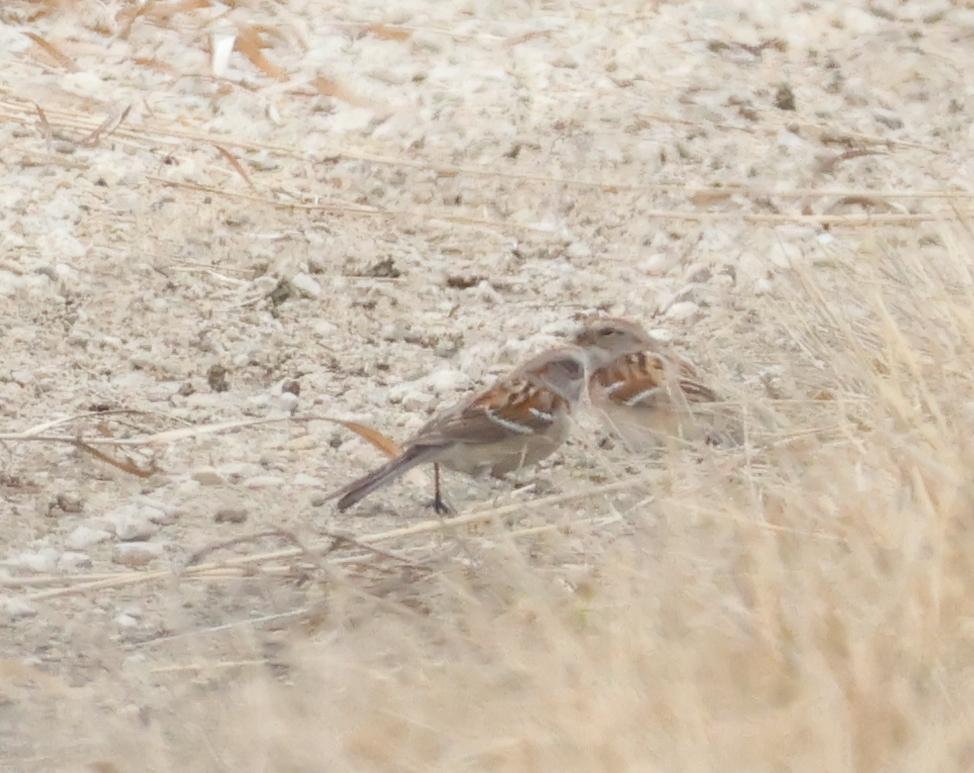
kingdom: Animalia
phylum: Chordata
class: Aves
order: Passeriformes
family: Passerellidae
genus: Spizelloides
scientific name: Spizelloides arborea
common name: American tree sparrow
